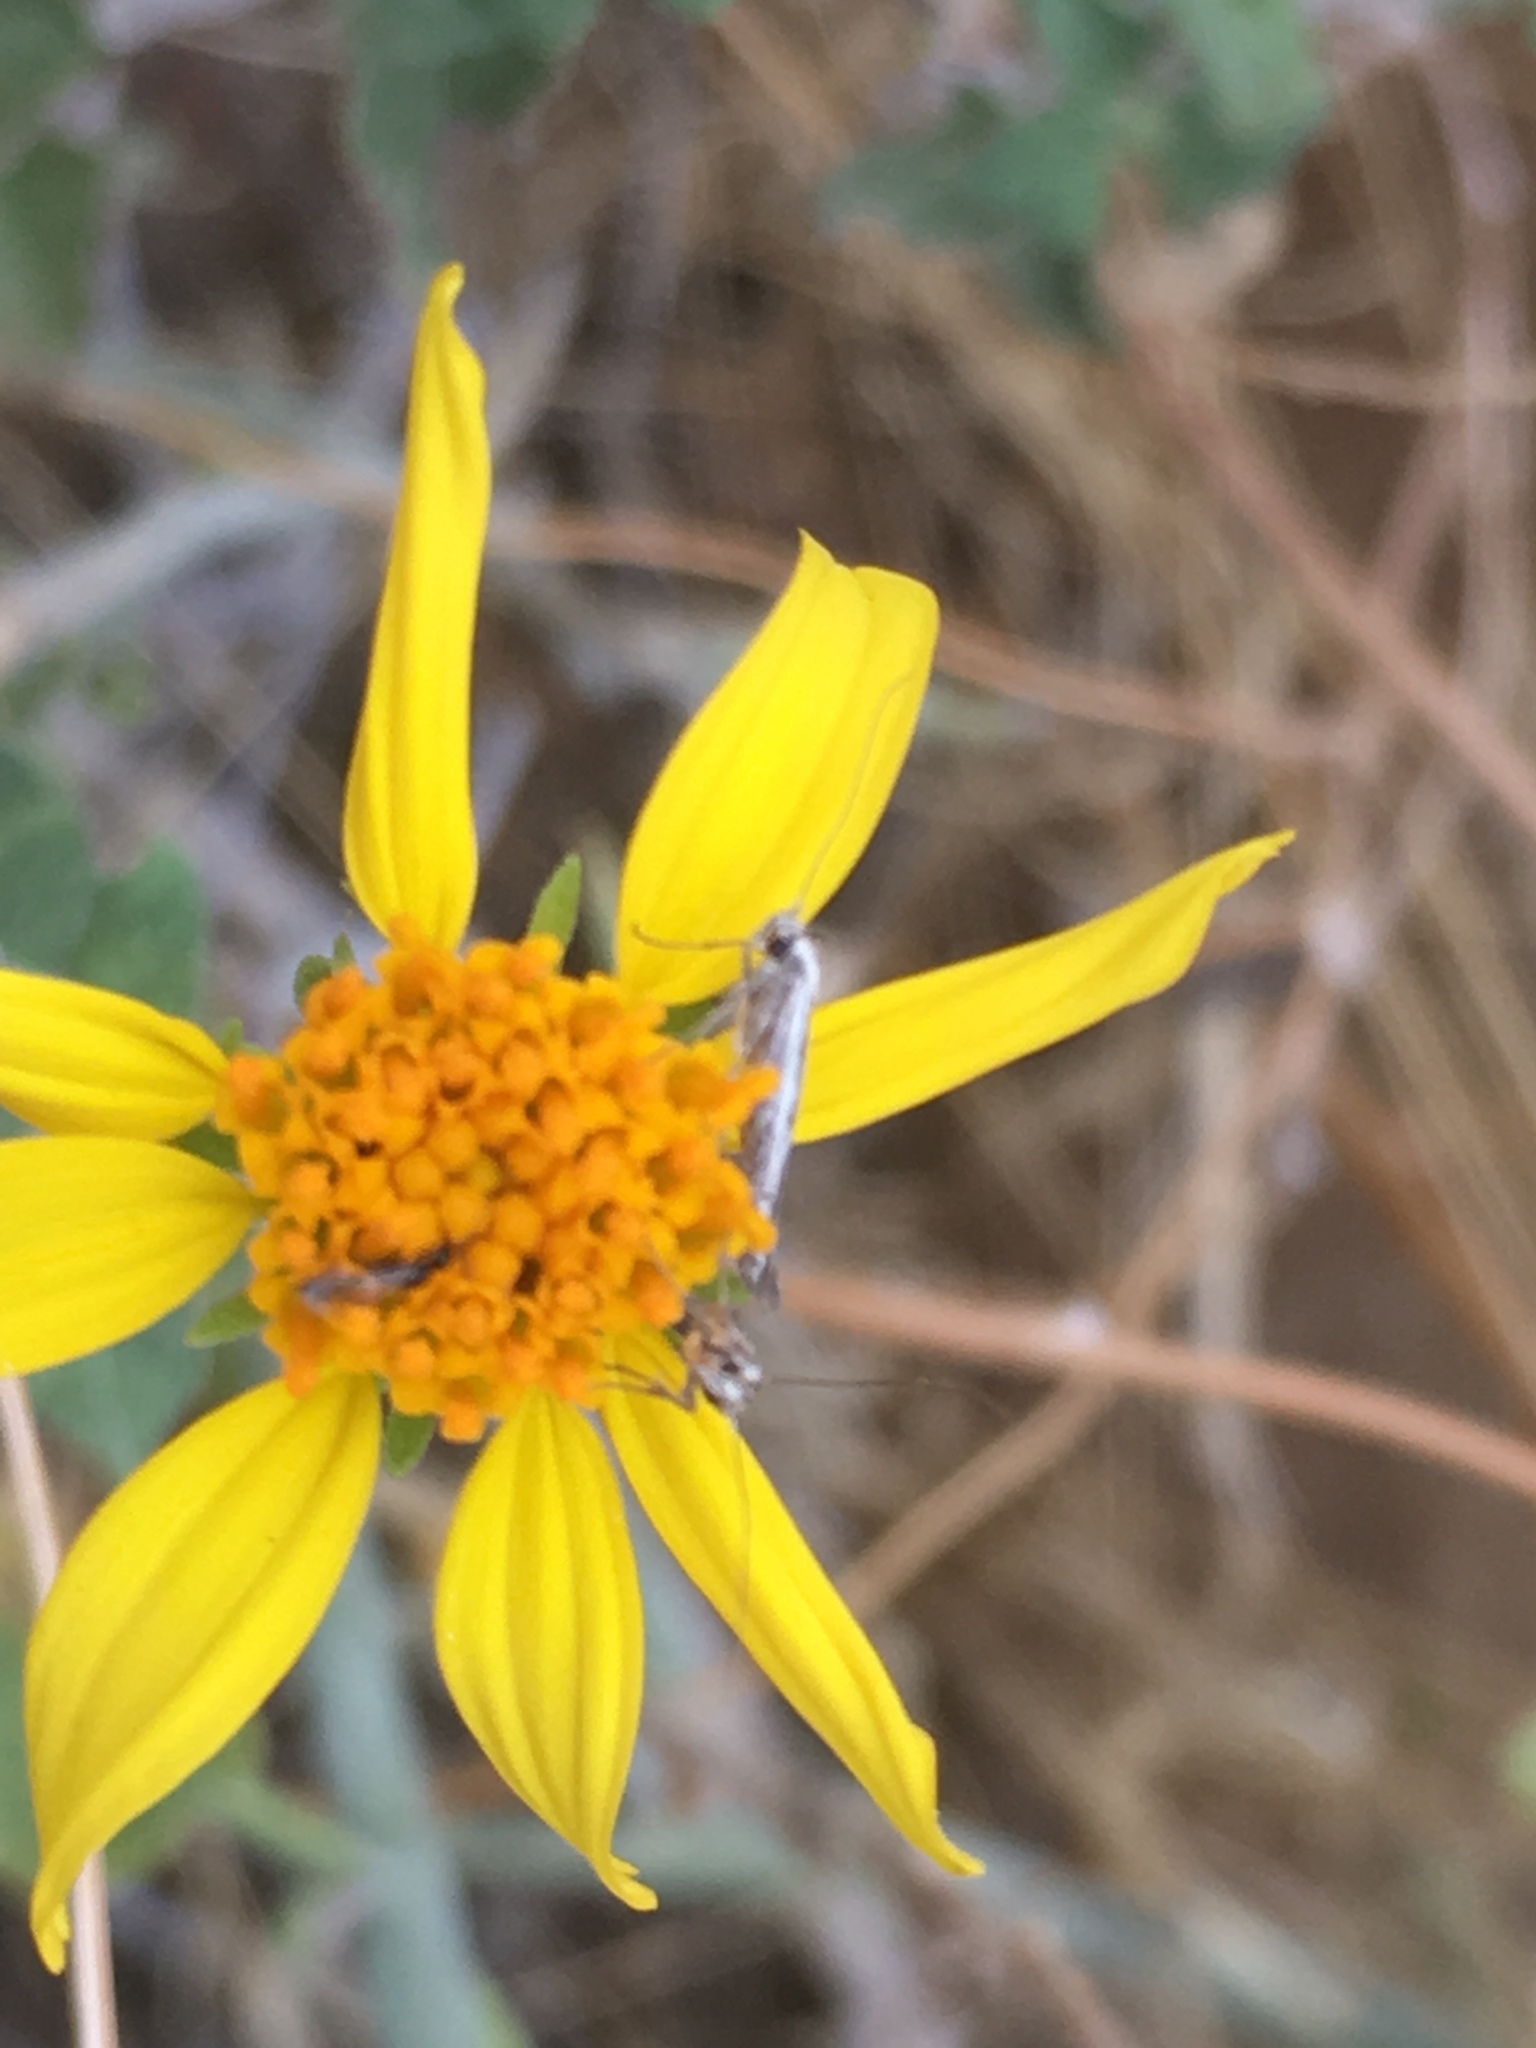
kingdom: Plantae
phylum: Tracheophyta
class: Magnoliopsida
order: Asterales
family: Asteraceae
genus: Bahiopsis
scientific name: Bahiopsis parishii
